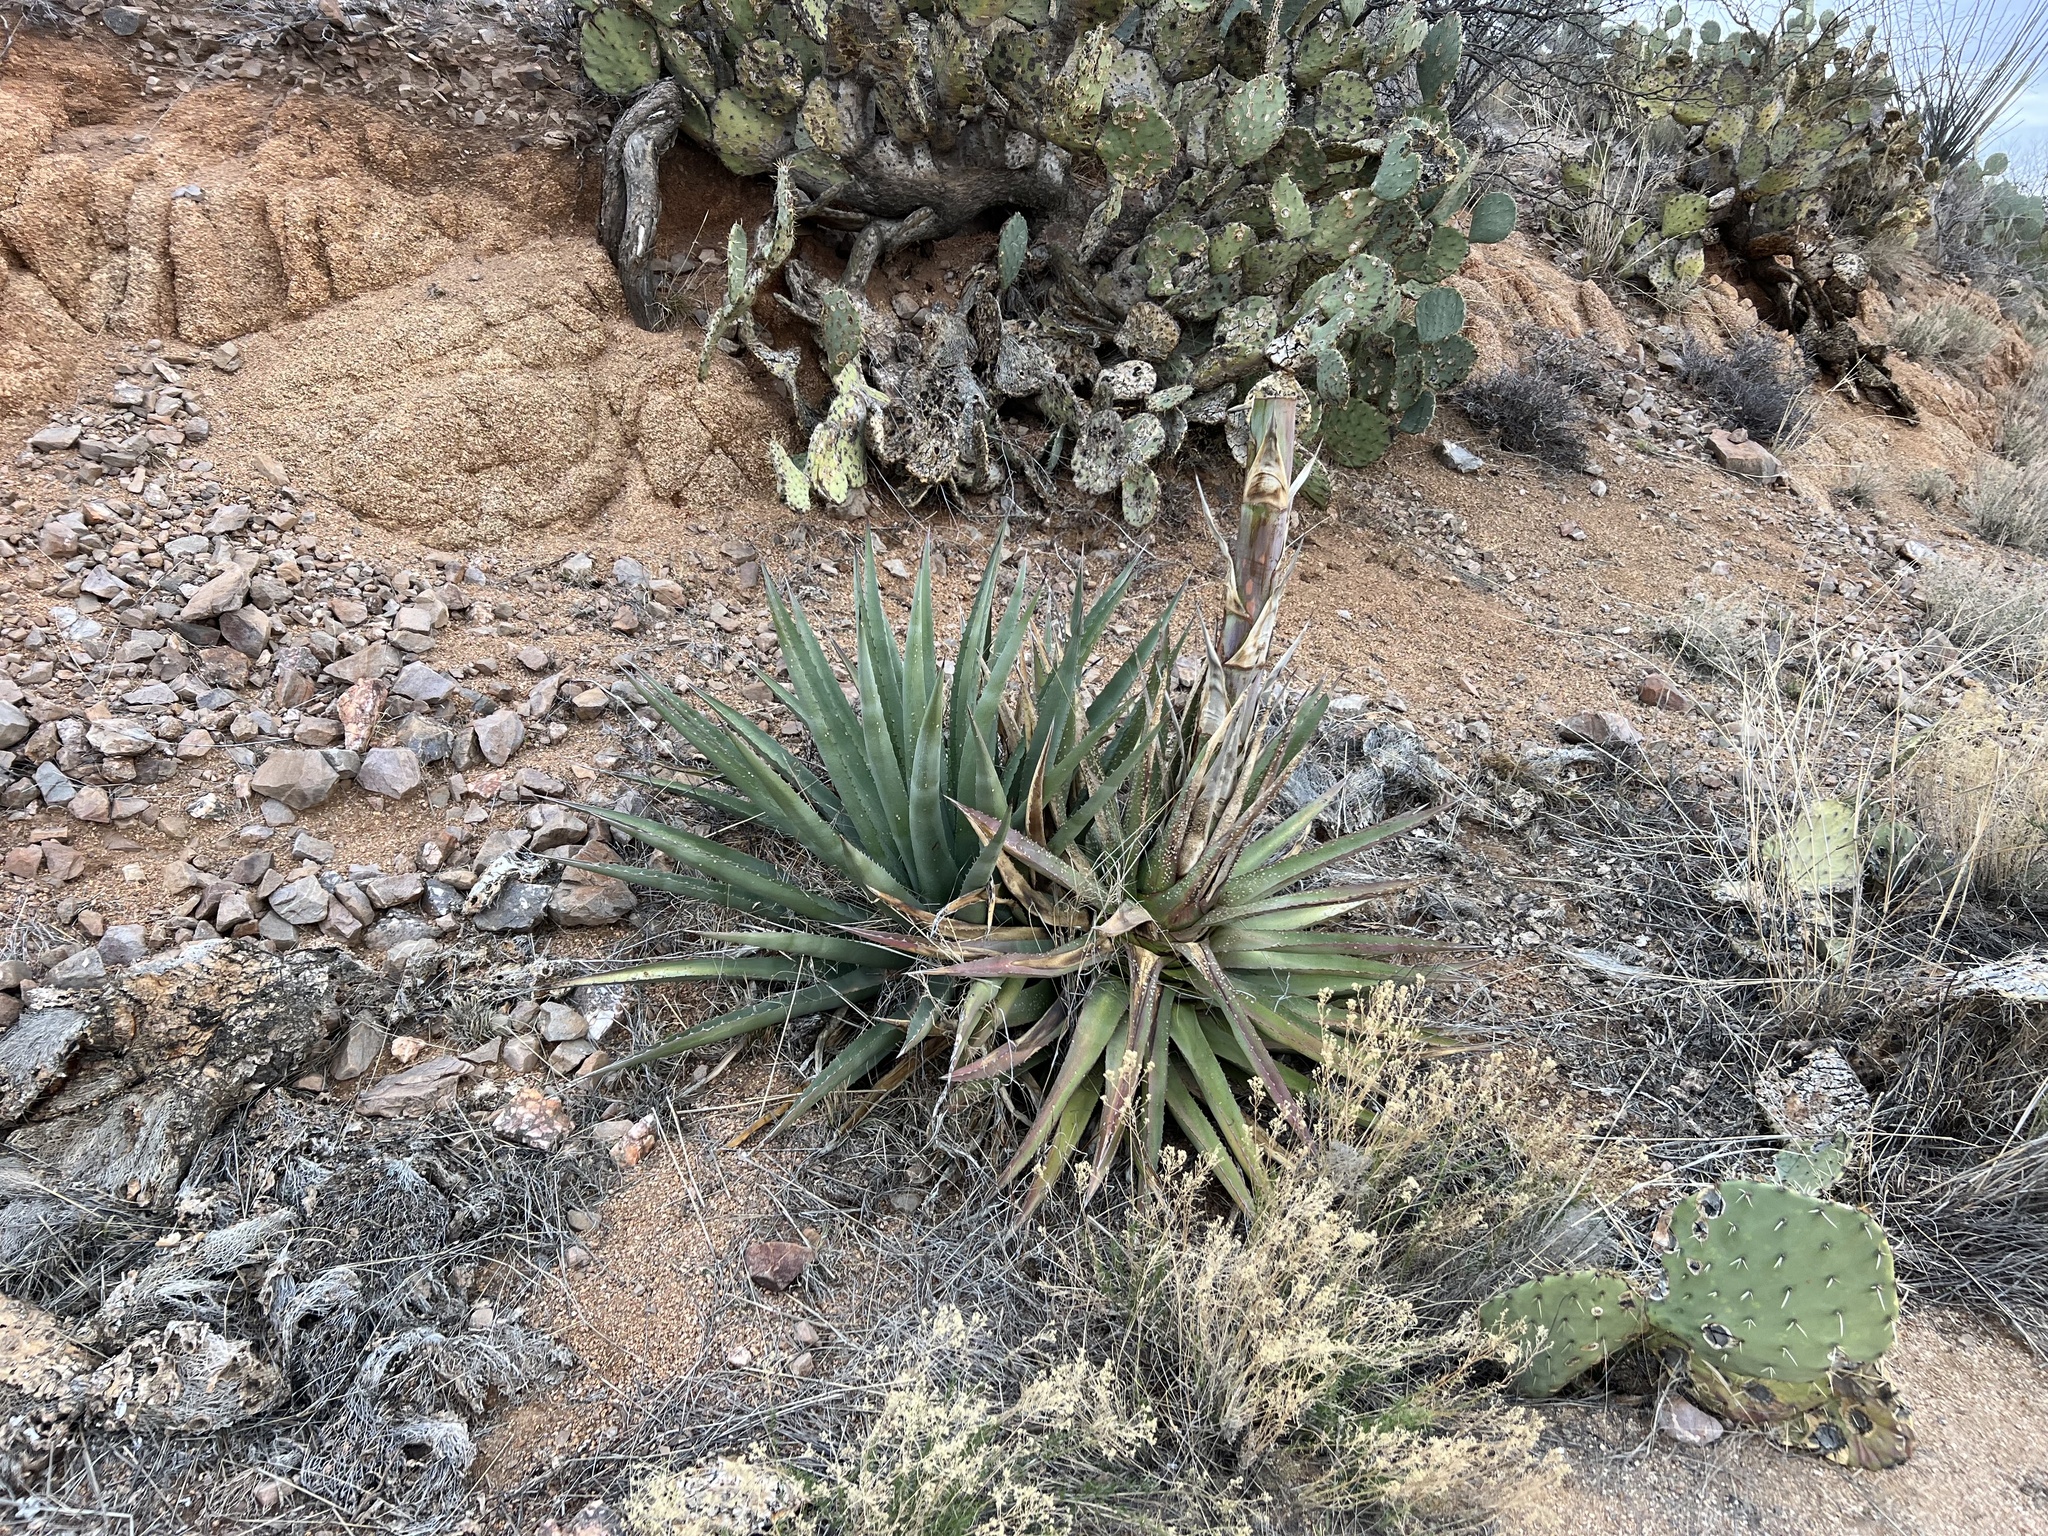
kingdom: Plantae
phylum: Tracheophyta
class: Liliopsida
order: Asparagales
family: Asparagaceae
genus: Agave
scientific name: Agave palmeri
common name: Palmer agave
